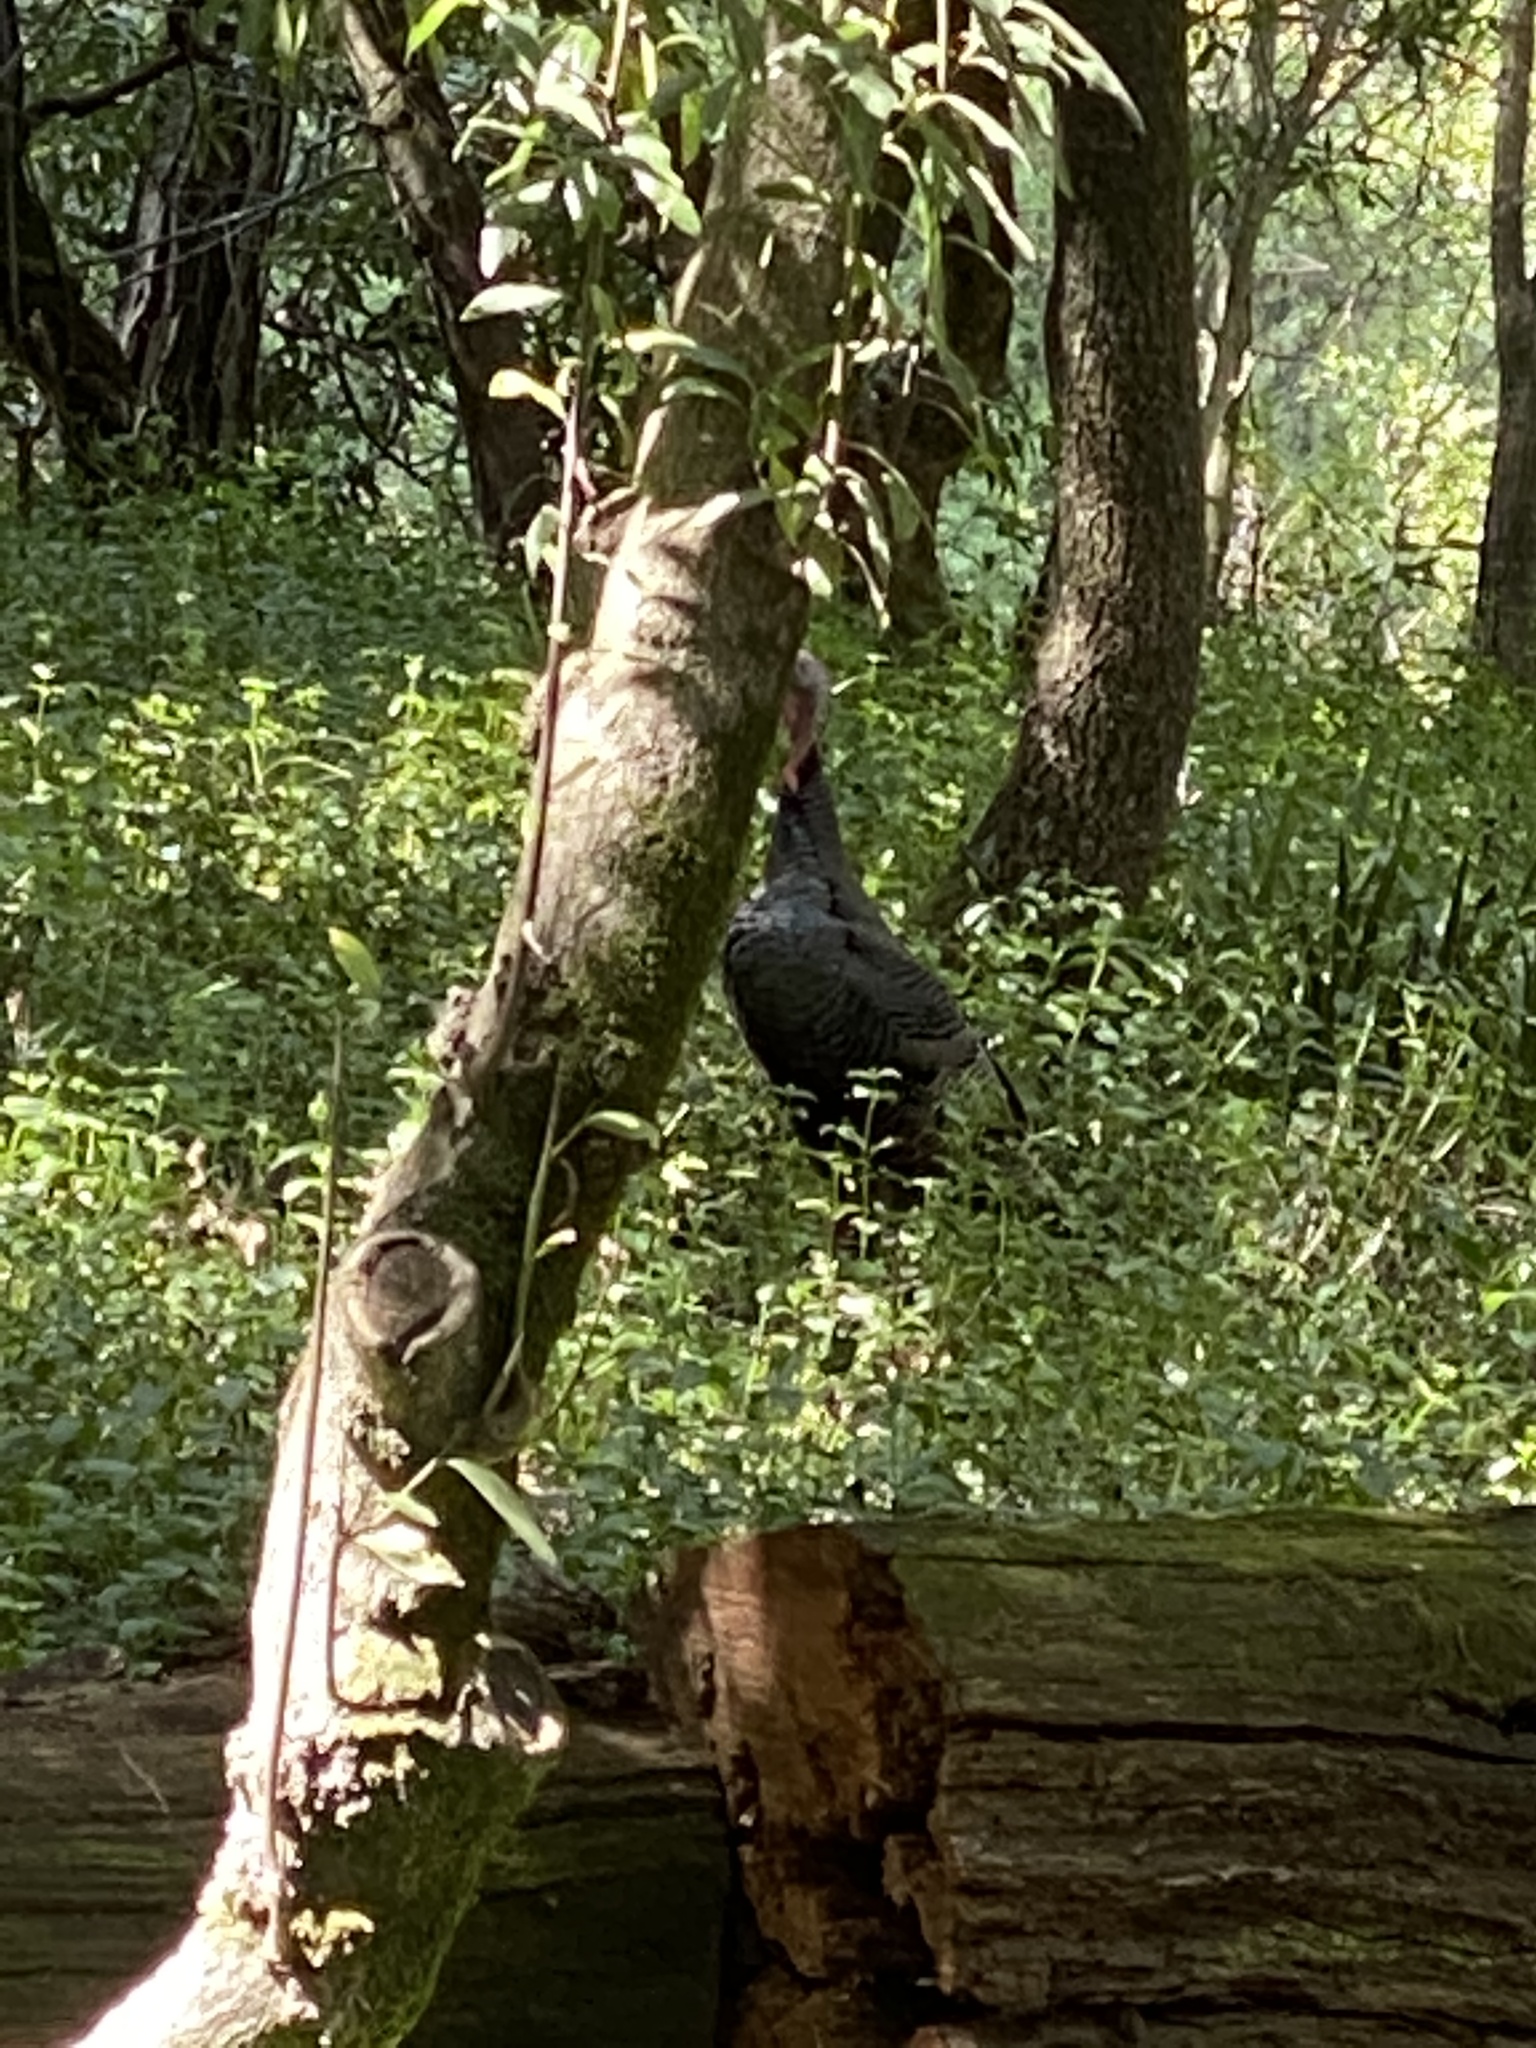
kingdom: Animalia
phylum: Chordata
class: Aves
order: Galliformes
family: Phasianidae
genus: Meleagris
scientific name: Meleagris gallopavo
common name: Wild turkey
